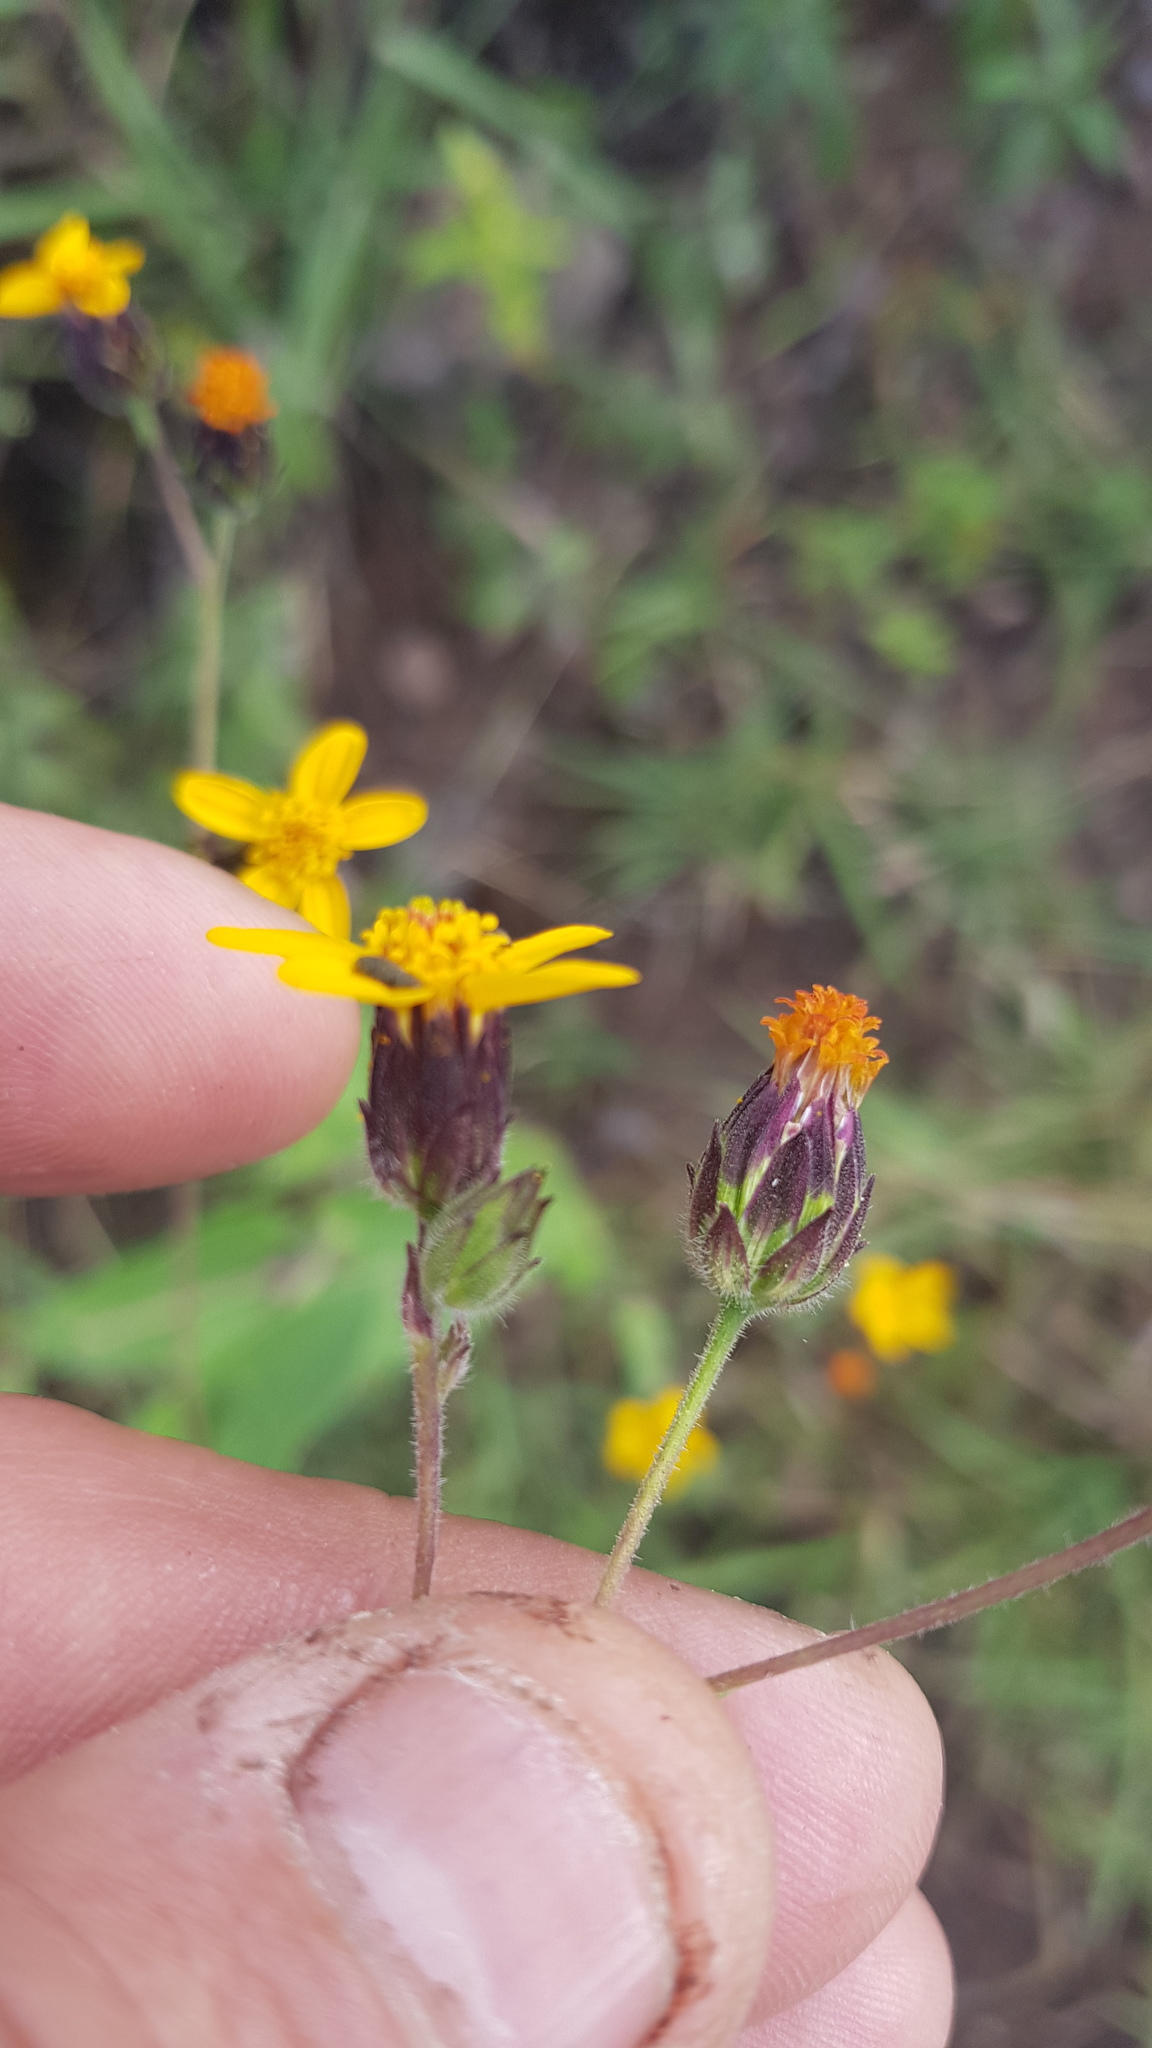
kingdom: Plantae
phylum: Tracheophyta
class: Magnoliopsida
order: Asterales
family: Asteraceae
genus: Simsia
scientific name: Simsia lagasceiformis
